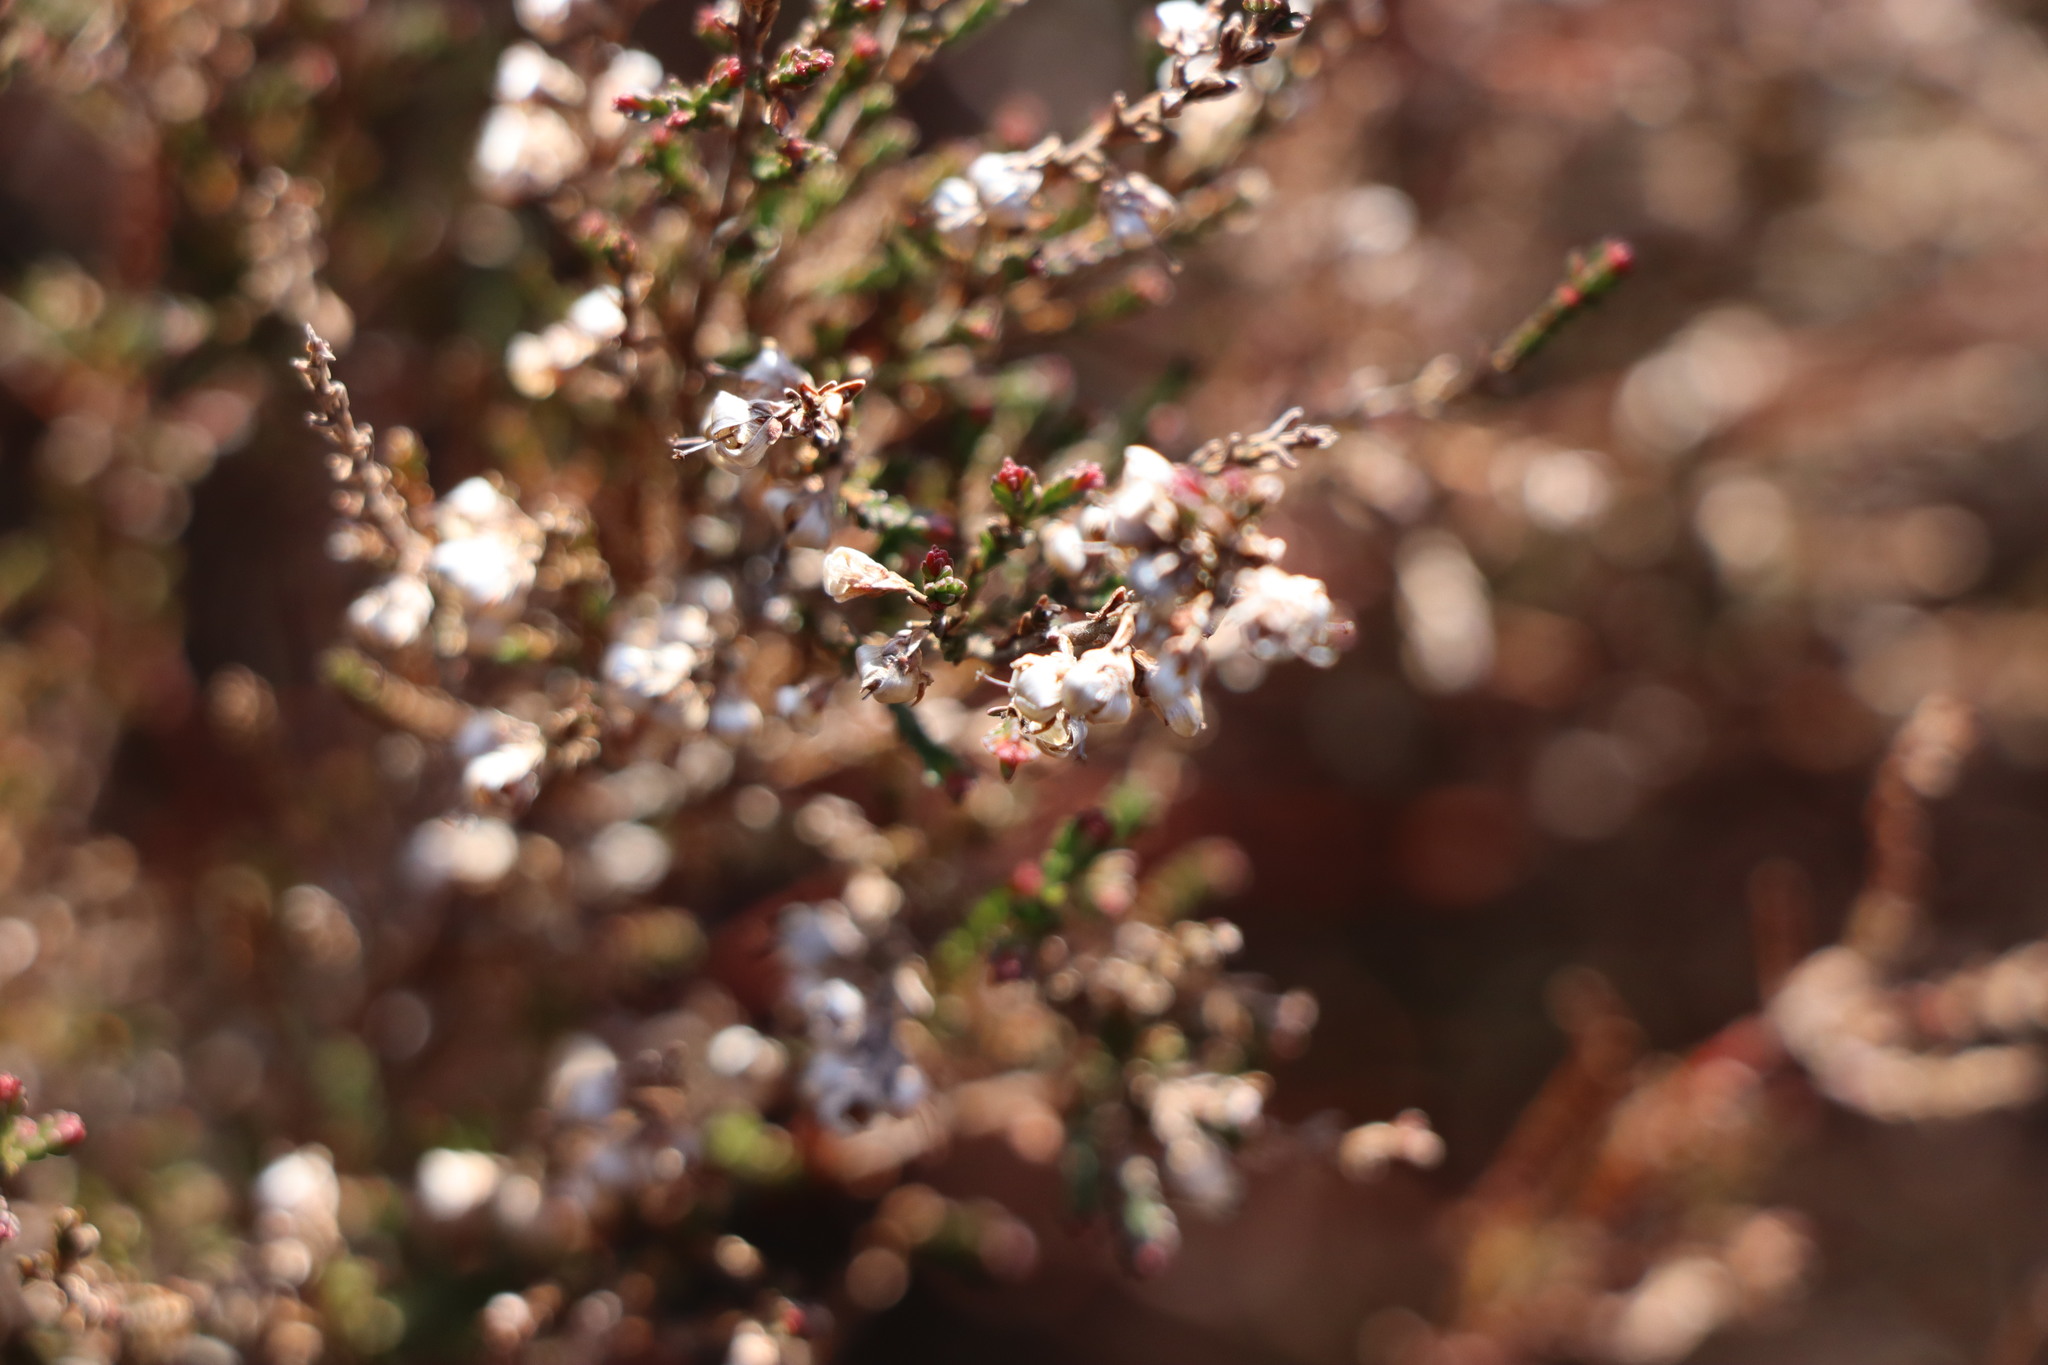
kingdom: Plantae
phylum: Tracheophyta
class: Magnoliopsida
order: Ericales
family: Ericaceae
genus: Calluna
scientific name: Calluna vulgaris
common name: Heather
